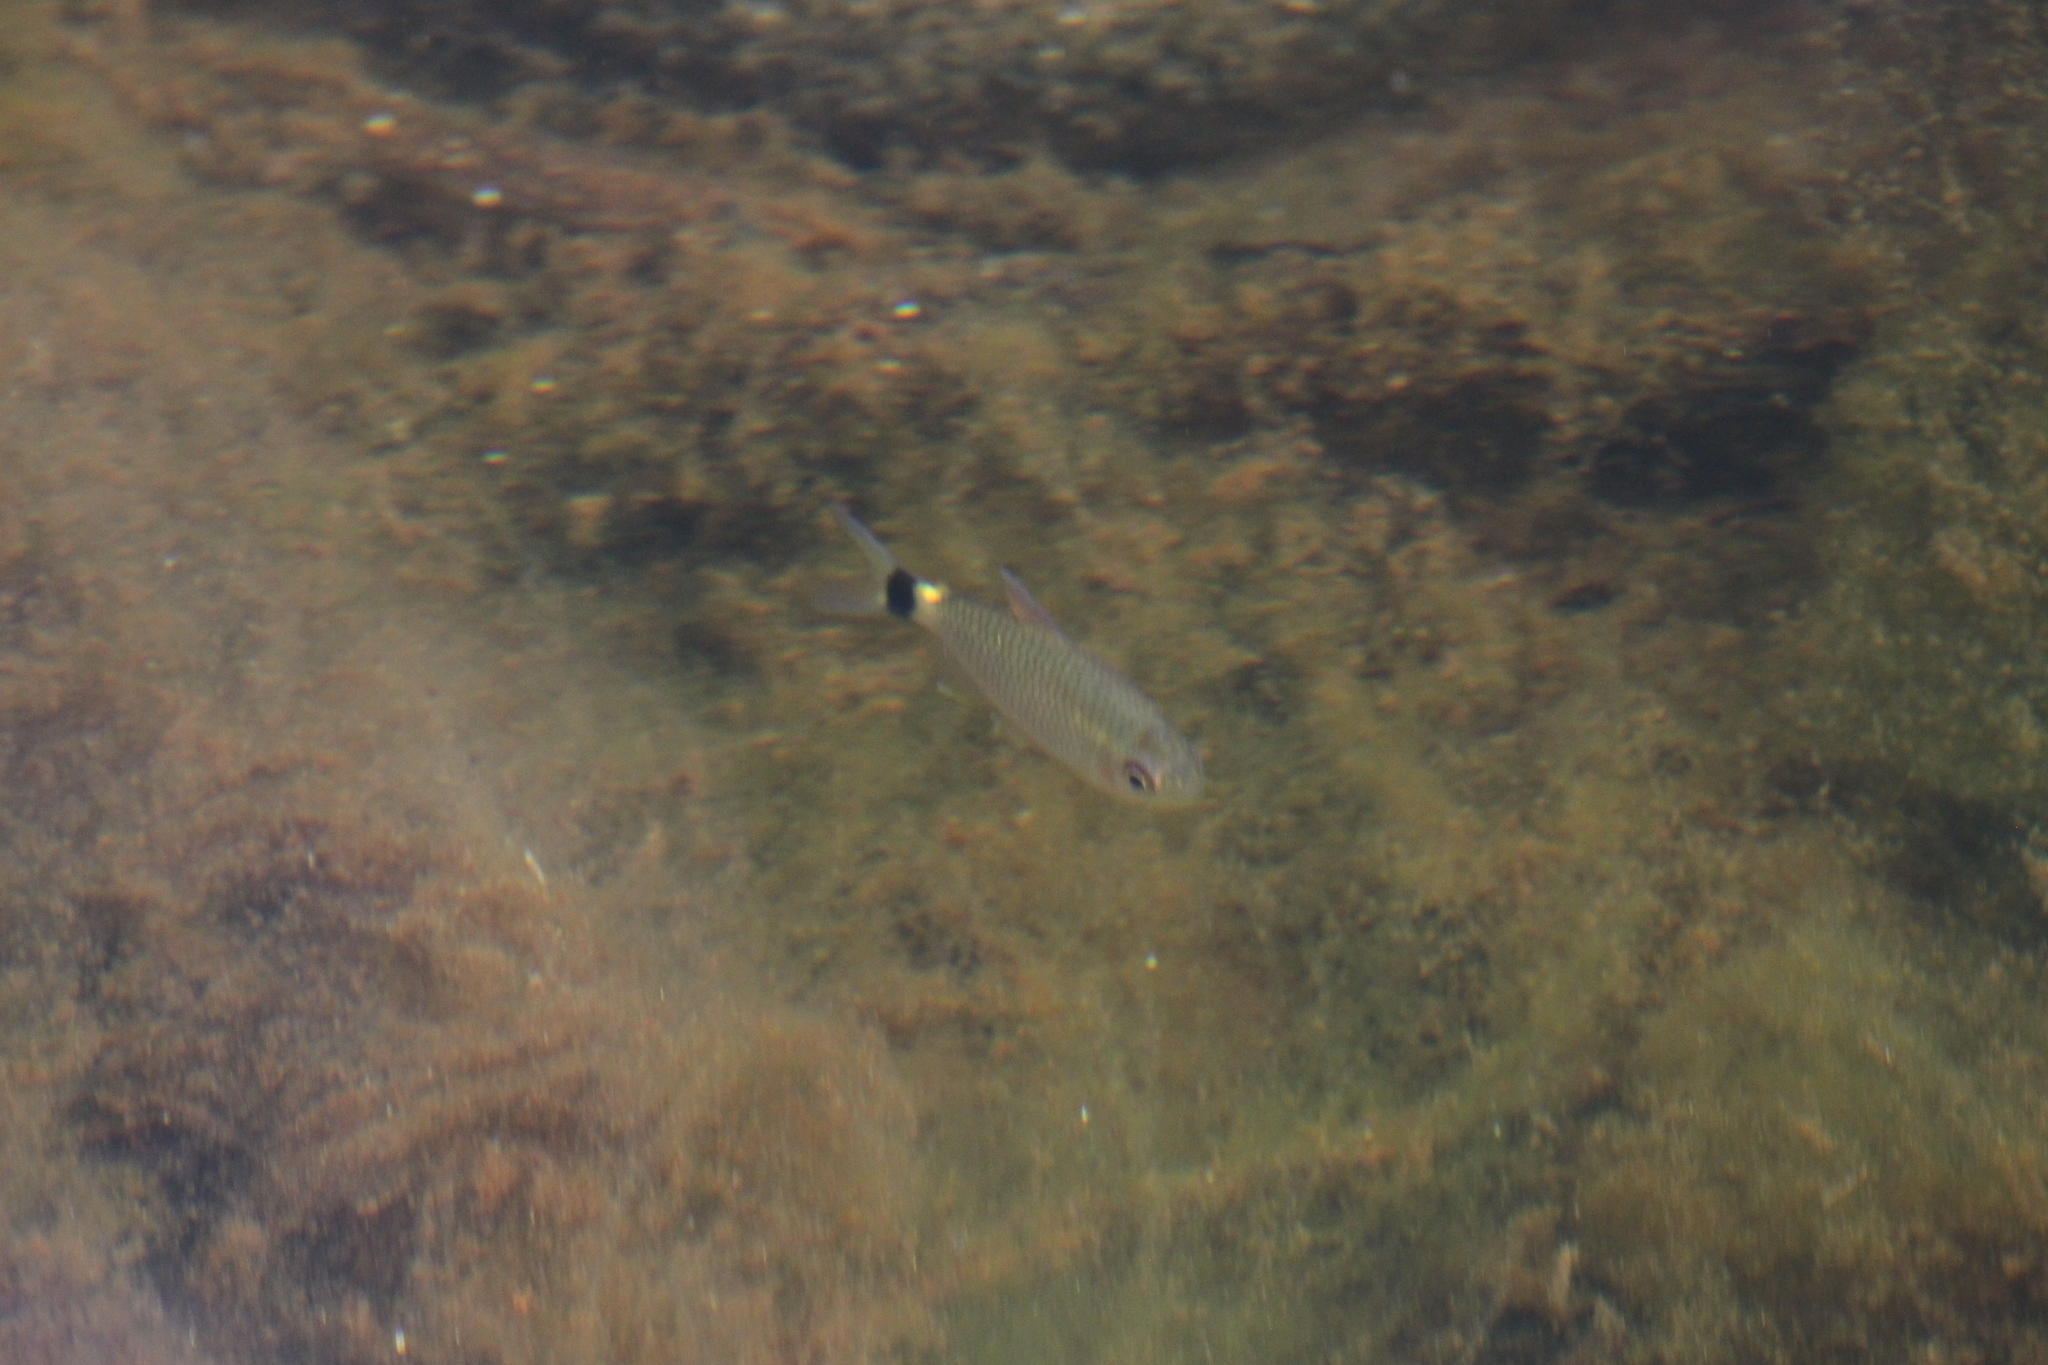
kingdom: Animalia
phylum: Chordata
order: Characiformes
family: Characidae
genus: Moenkhausia
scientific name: Moenkhausia oligolepis
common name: Glass tetra
